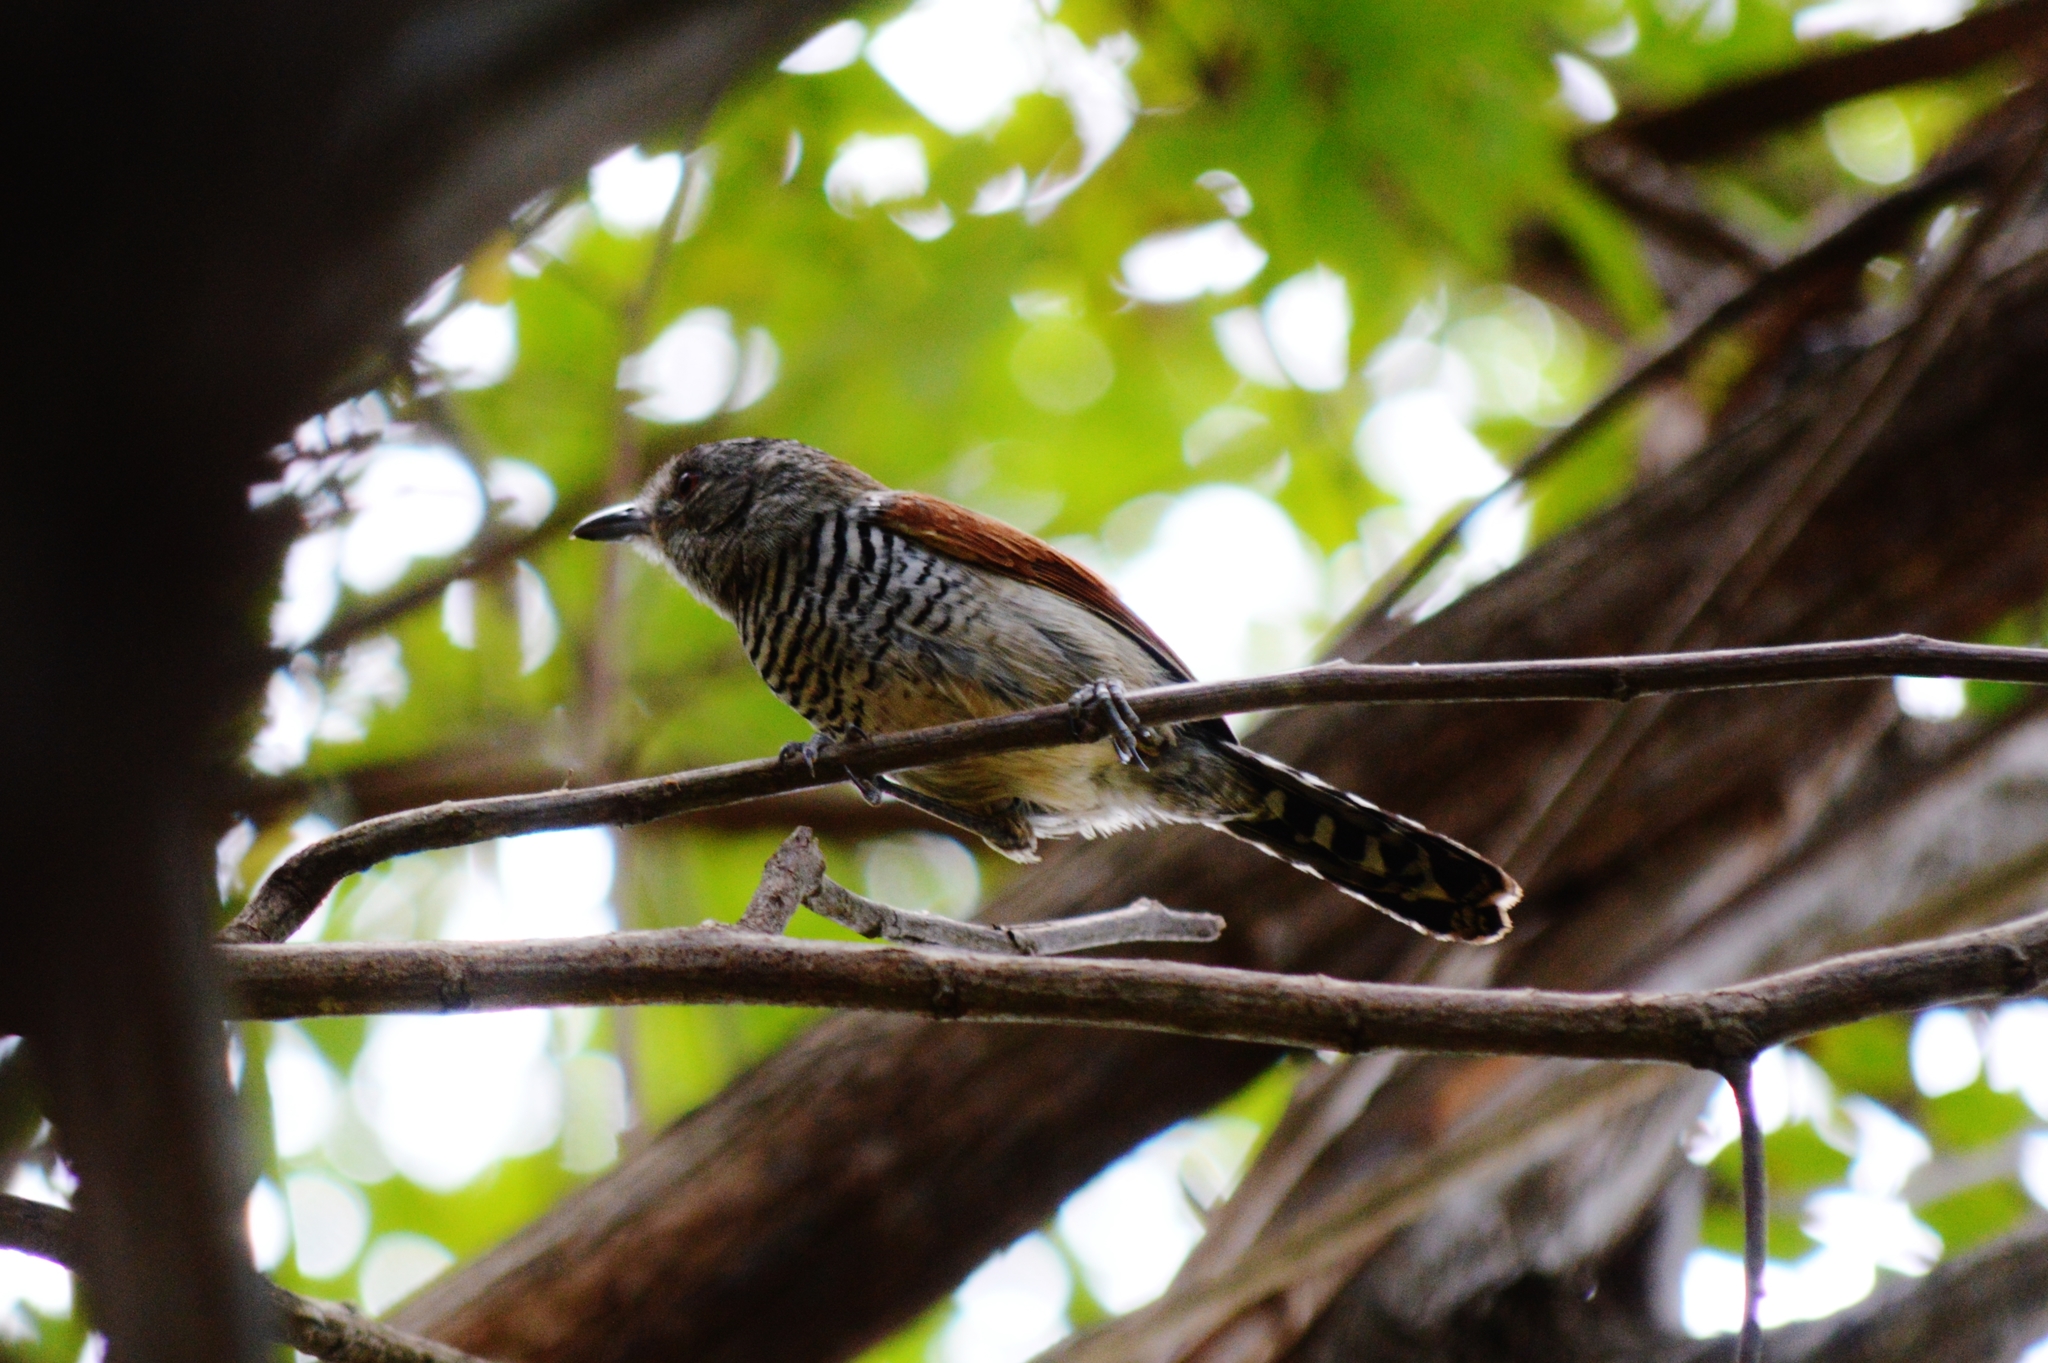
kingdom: Animalia
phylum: Chordata
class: Aves
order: Passeriformes
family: Thamnophilidae
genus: Thamnophilus
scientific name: Thamnophilus torquatus
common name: Rufous-winged antshrike
